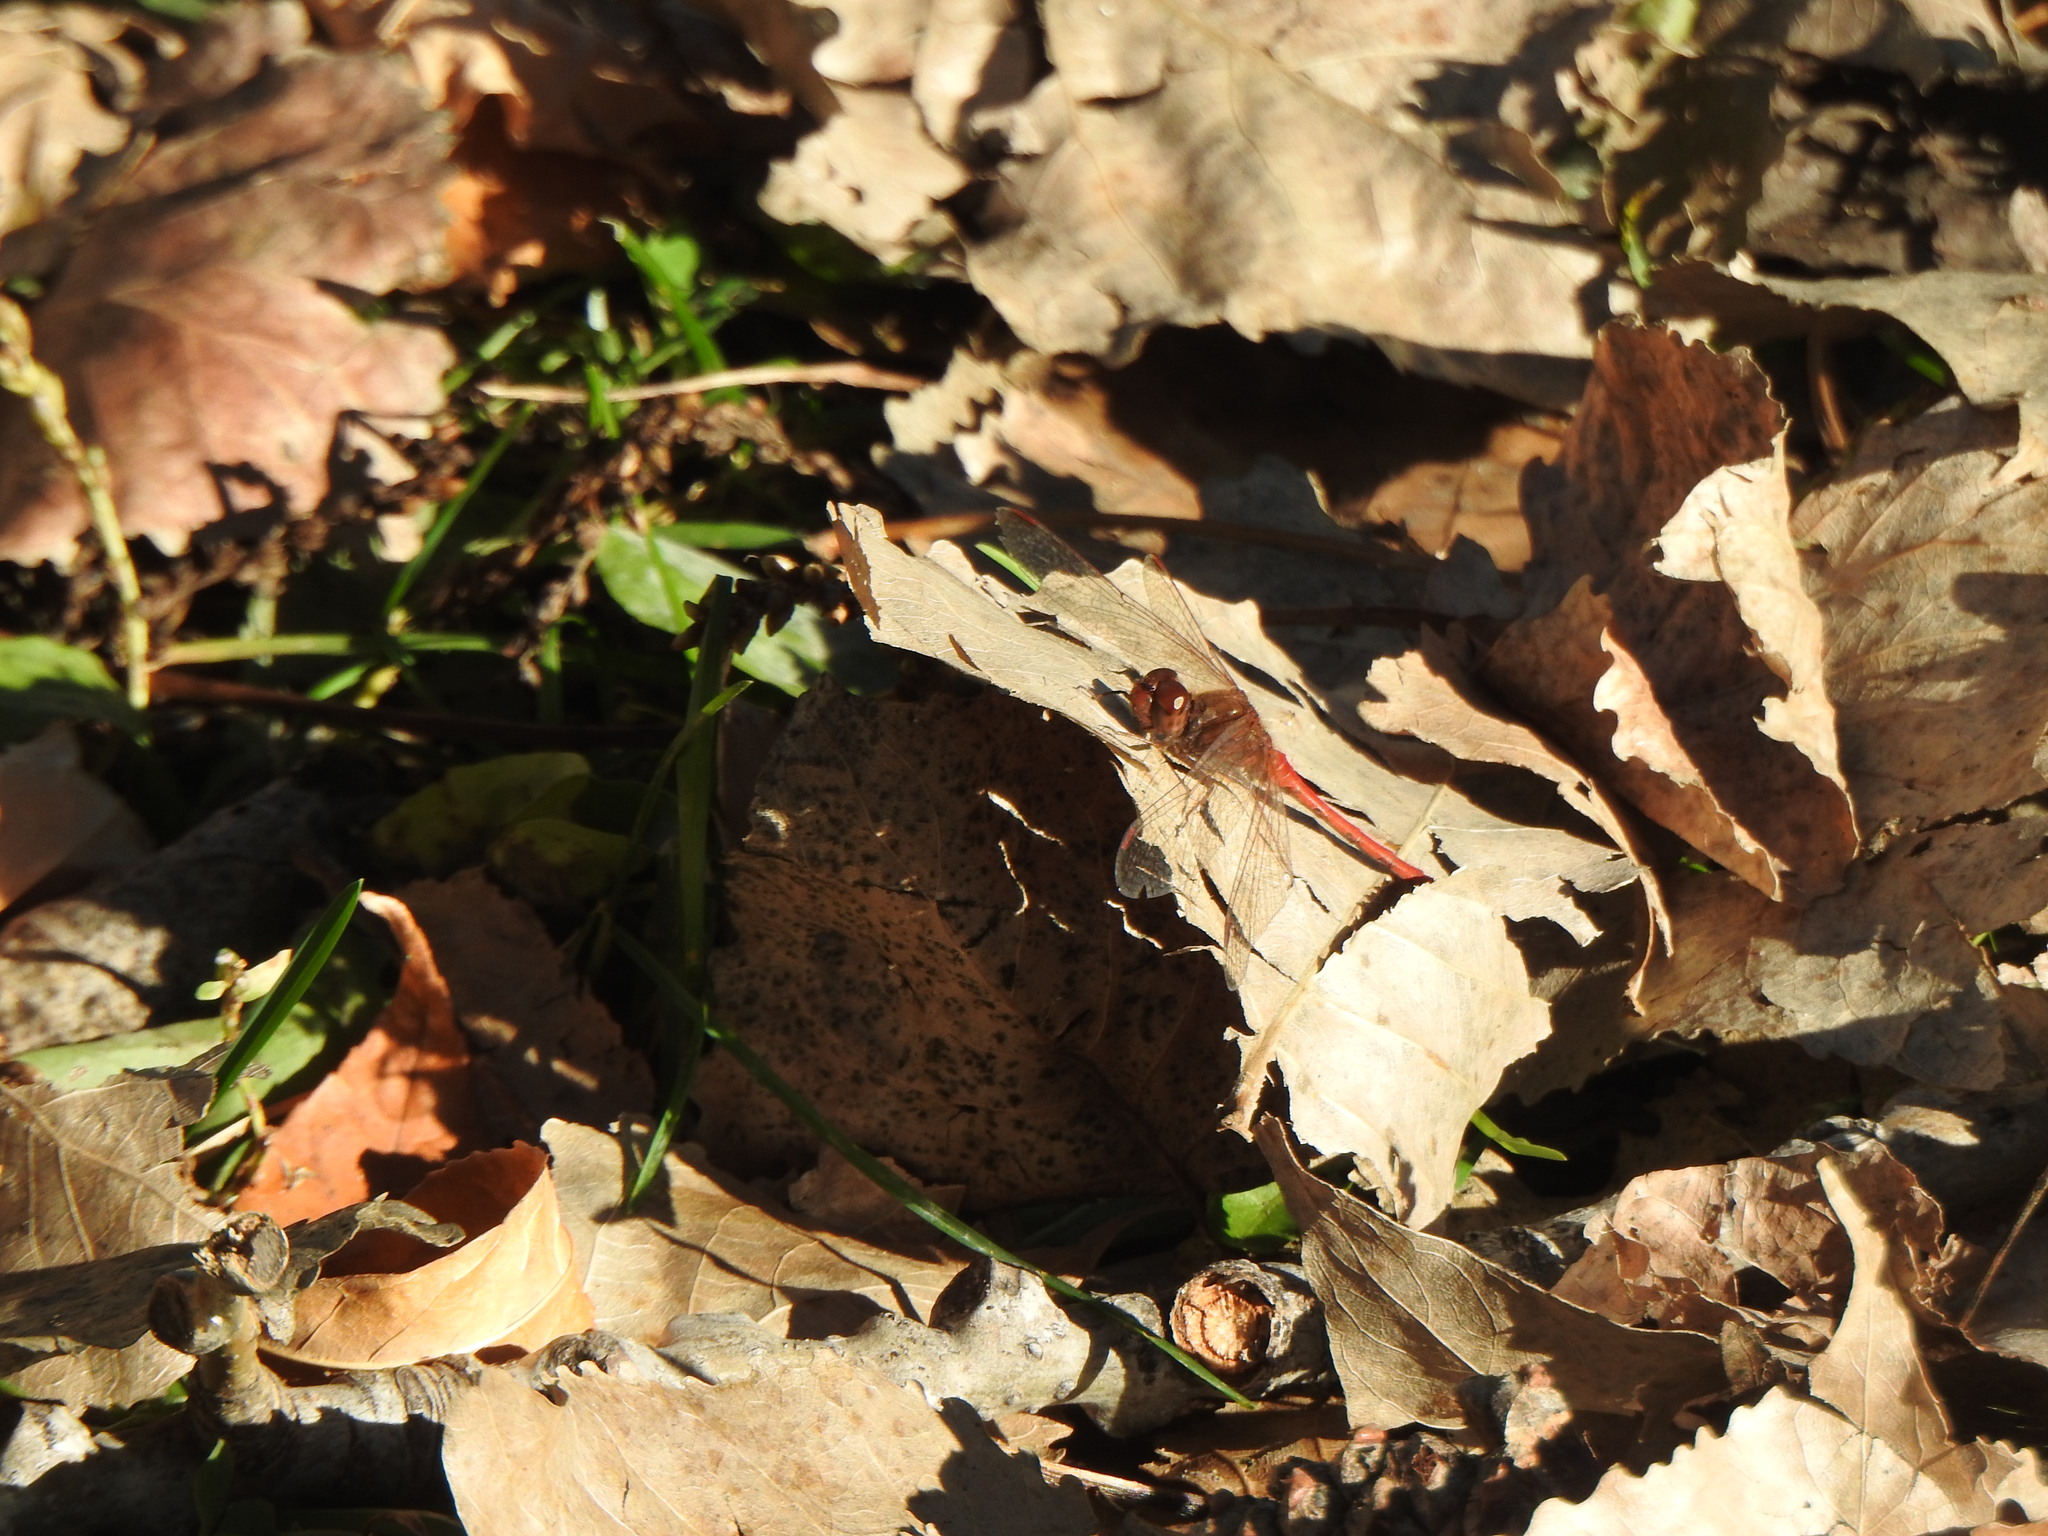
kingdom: Animalia
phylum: Arthropoda
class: Insecta
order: Odonata
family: Libellulidae
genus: Sympetrum
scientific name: Sympetrum vicinum
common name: Autumn meadowhawk
